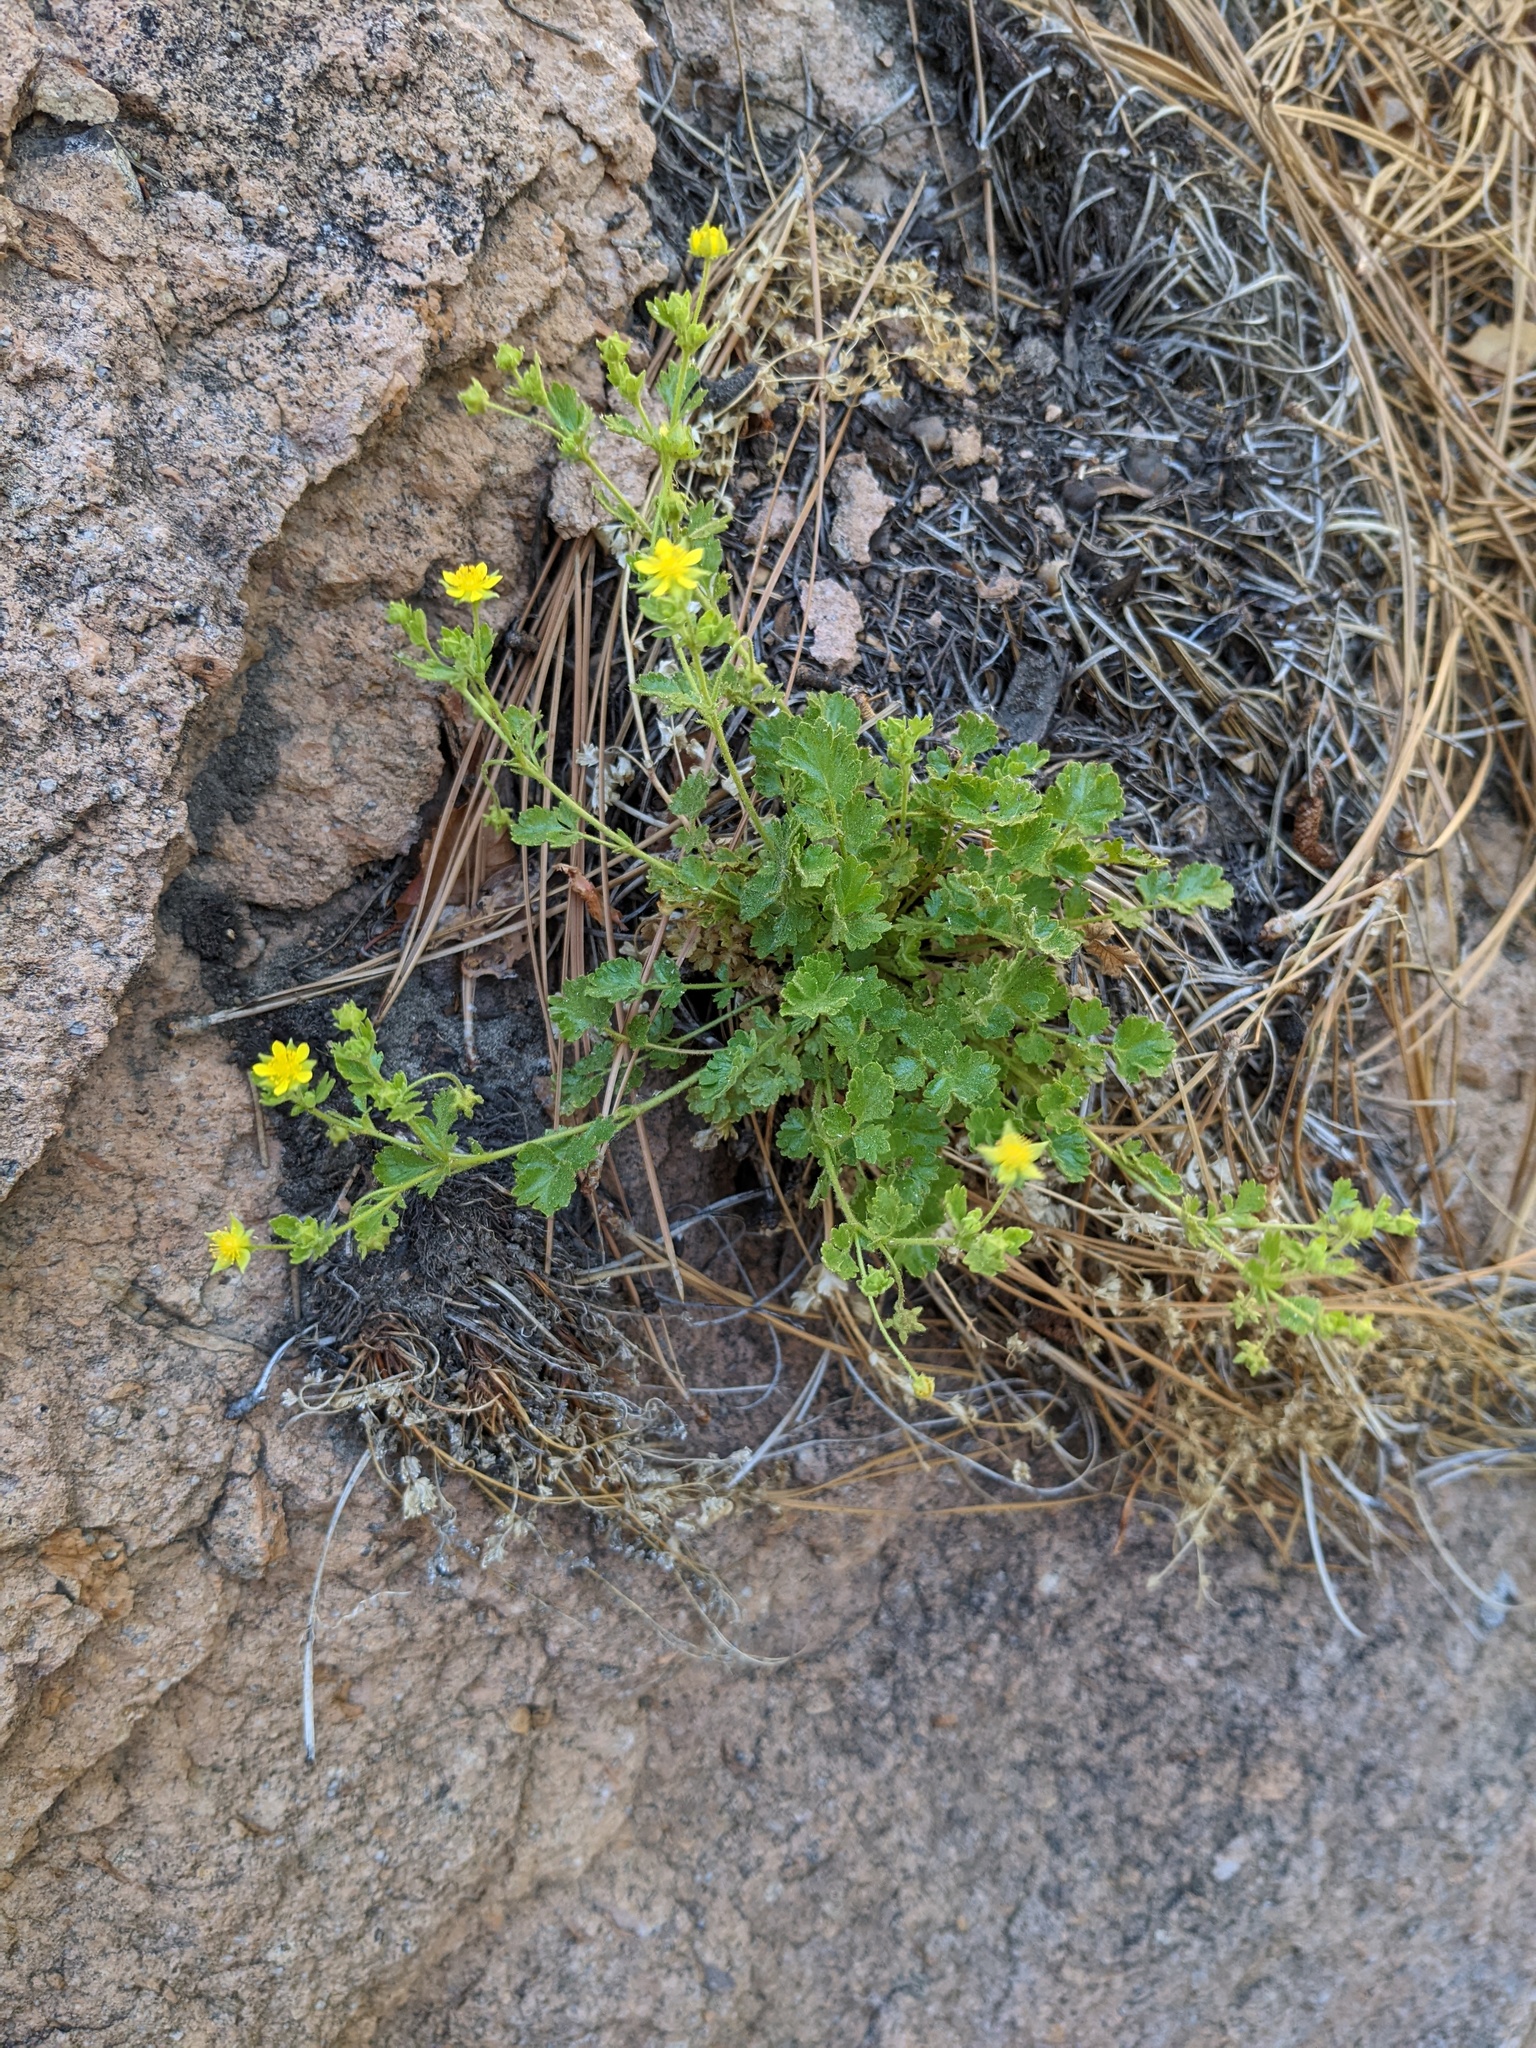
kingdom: Plantae
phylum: Tracheophyta
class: Magnoliopsida
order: Rosales
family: Rosaceae
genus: Potentilla
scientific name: Potentilla saxosa
